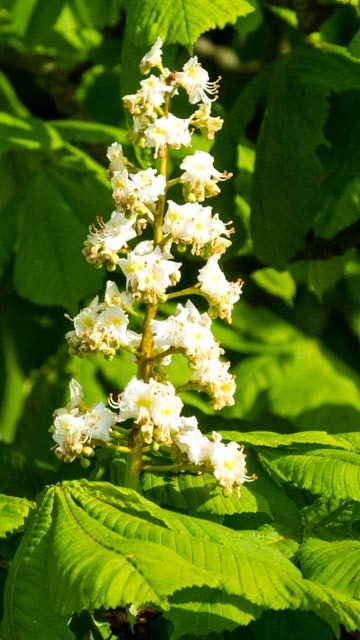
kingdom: Plantae
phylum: Tracheophyta
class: Magnoliopsida
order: Sapindales
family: Sapindaceae
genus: Aesculus
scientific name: Aesculus hippocastanum
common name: Horse-chestnut
